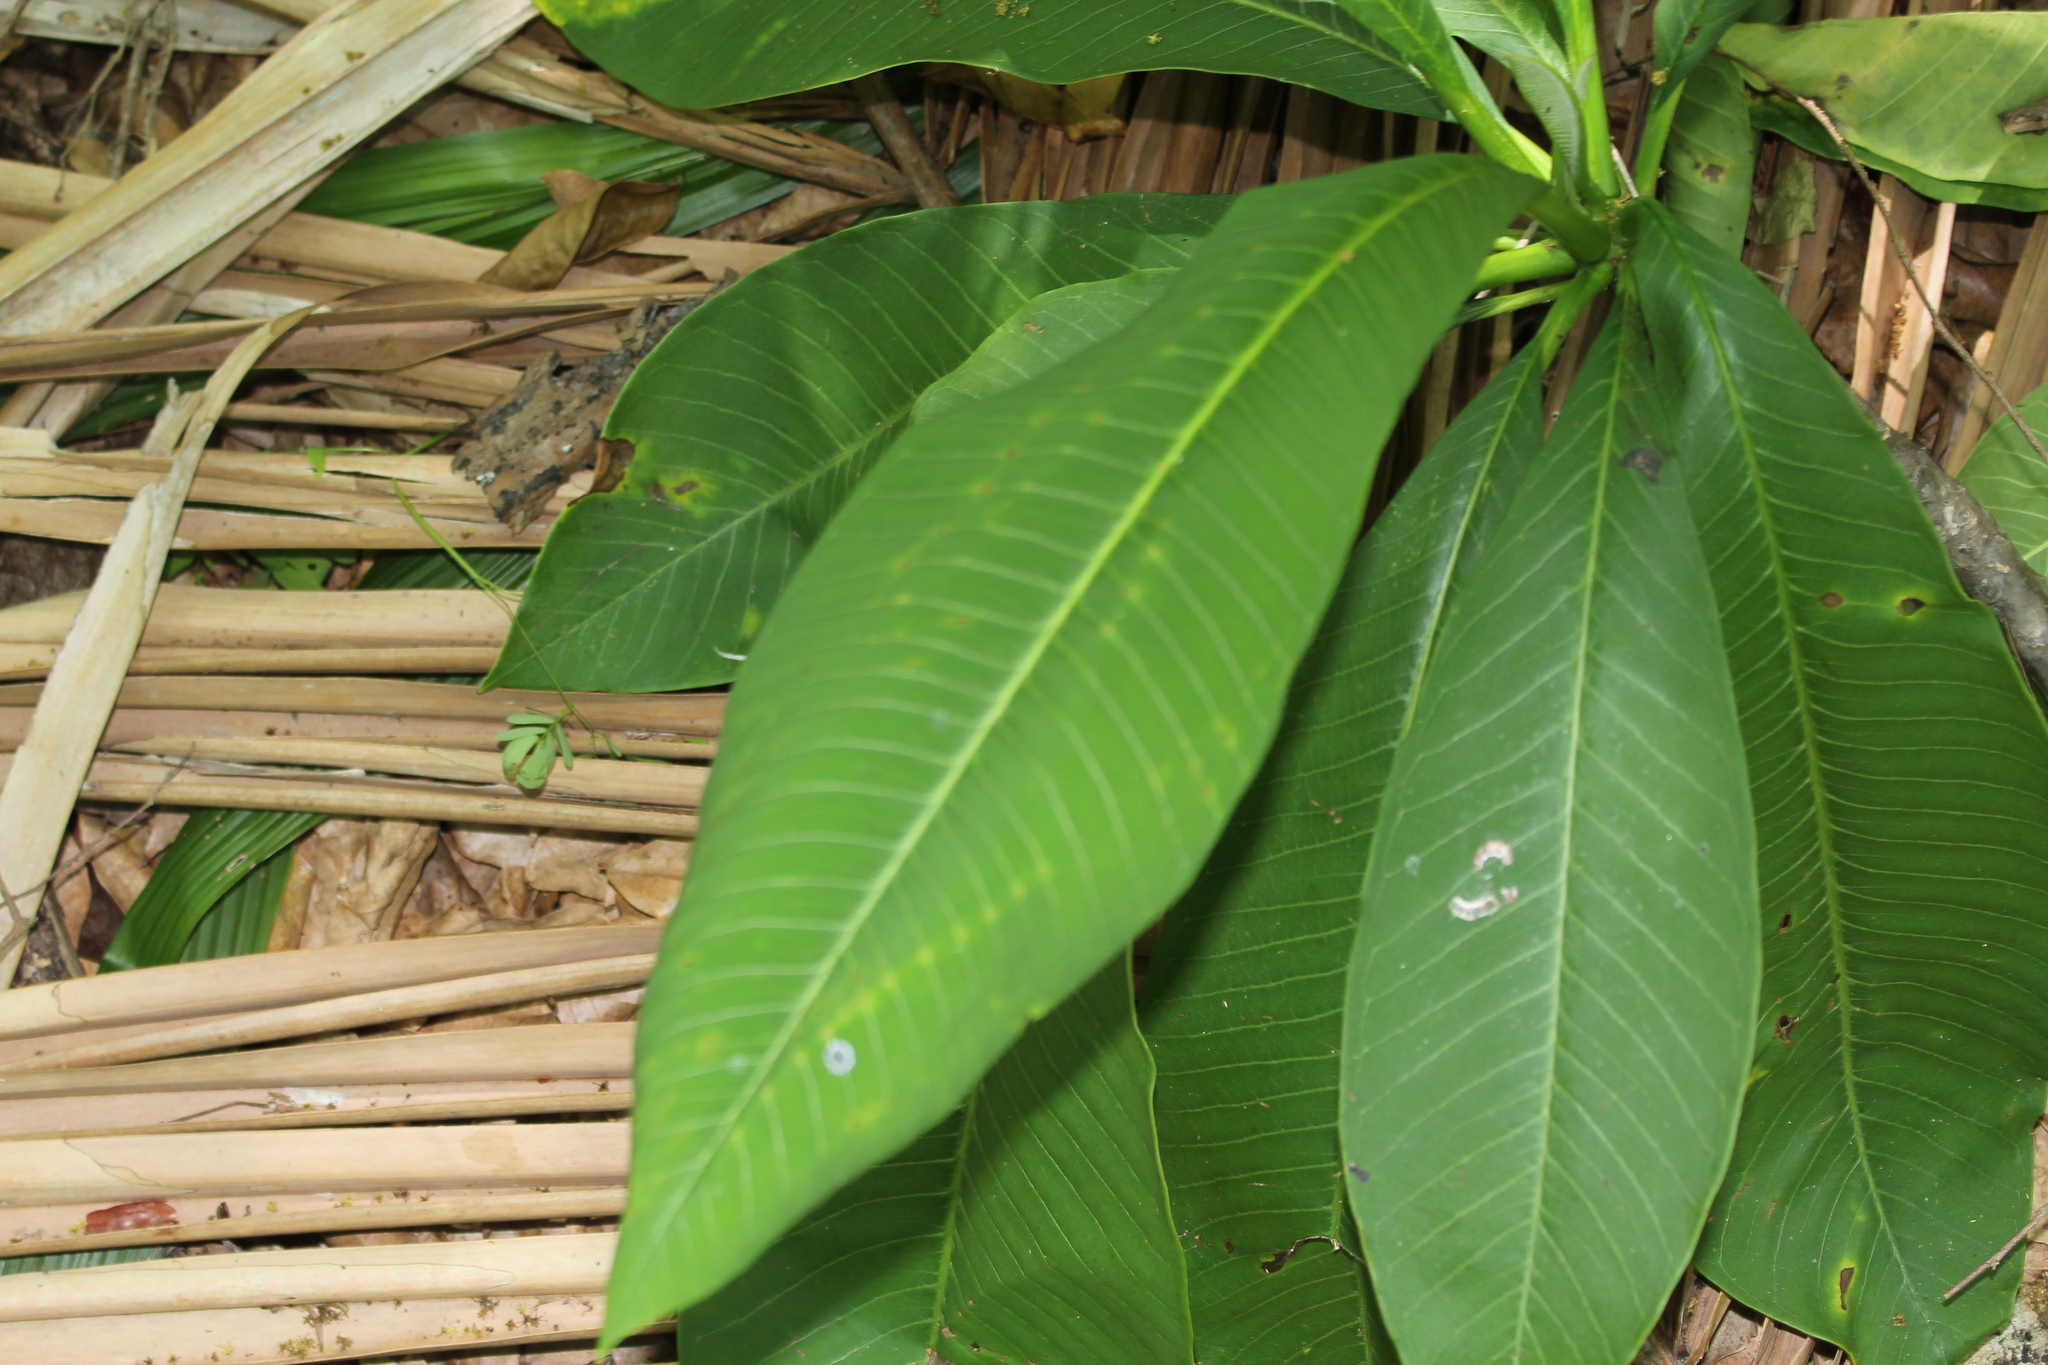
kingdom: Plantae
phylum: Tracheophyta
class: Magnoliopsida
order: Gentianales
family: Apocynaceae
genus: Plumeria
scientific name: Plumeria rubra
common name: Pagoda-tree
